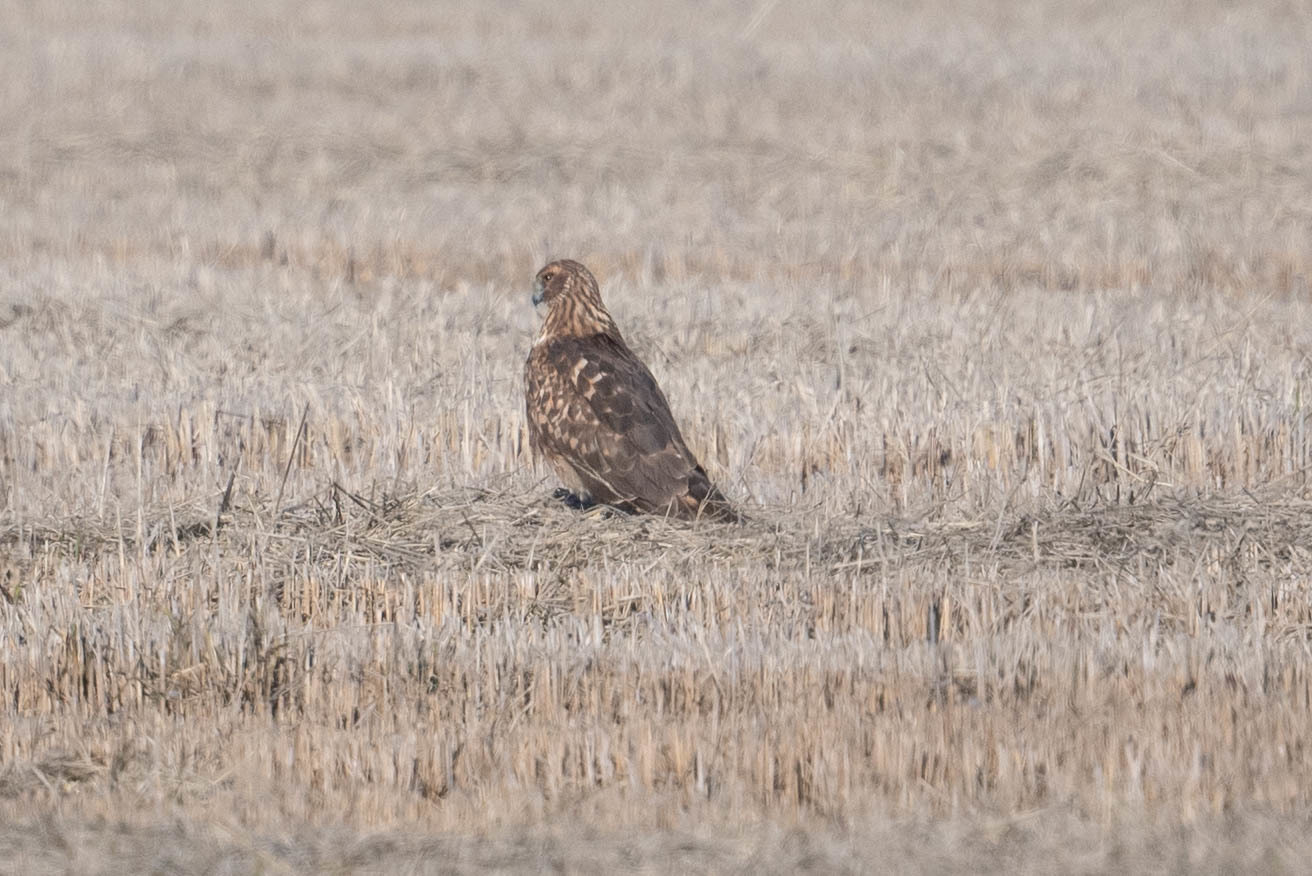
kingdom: Animalia
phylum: Chordata
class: Aves
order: Accipitriformes
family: Accipitridae
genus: Circus
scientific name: Circus cyaneus
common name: Hen harrier
